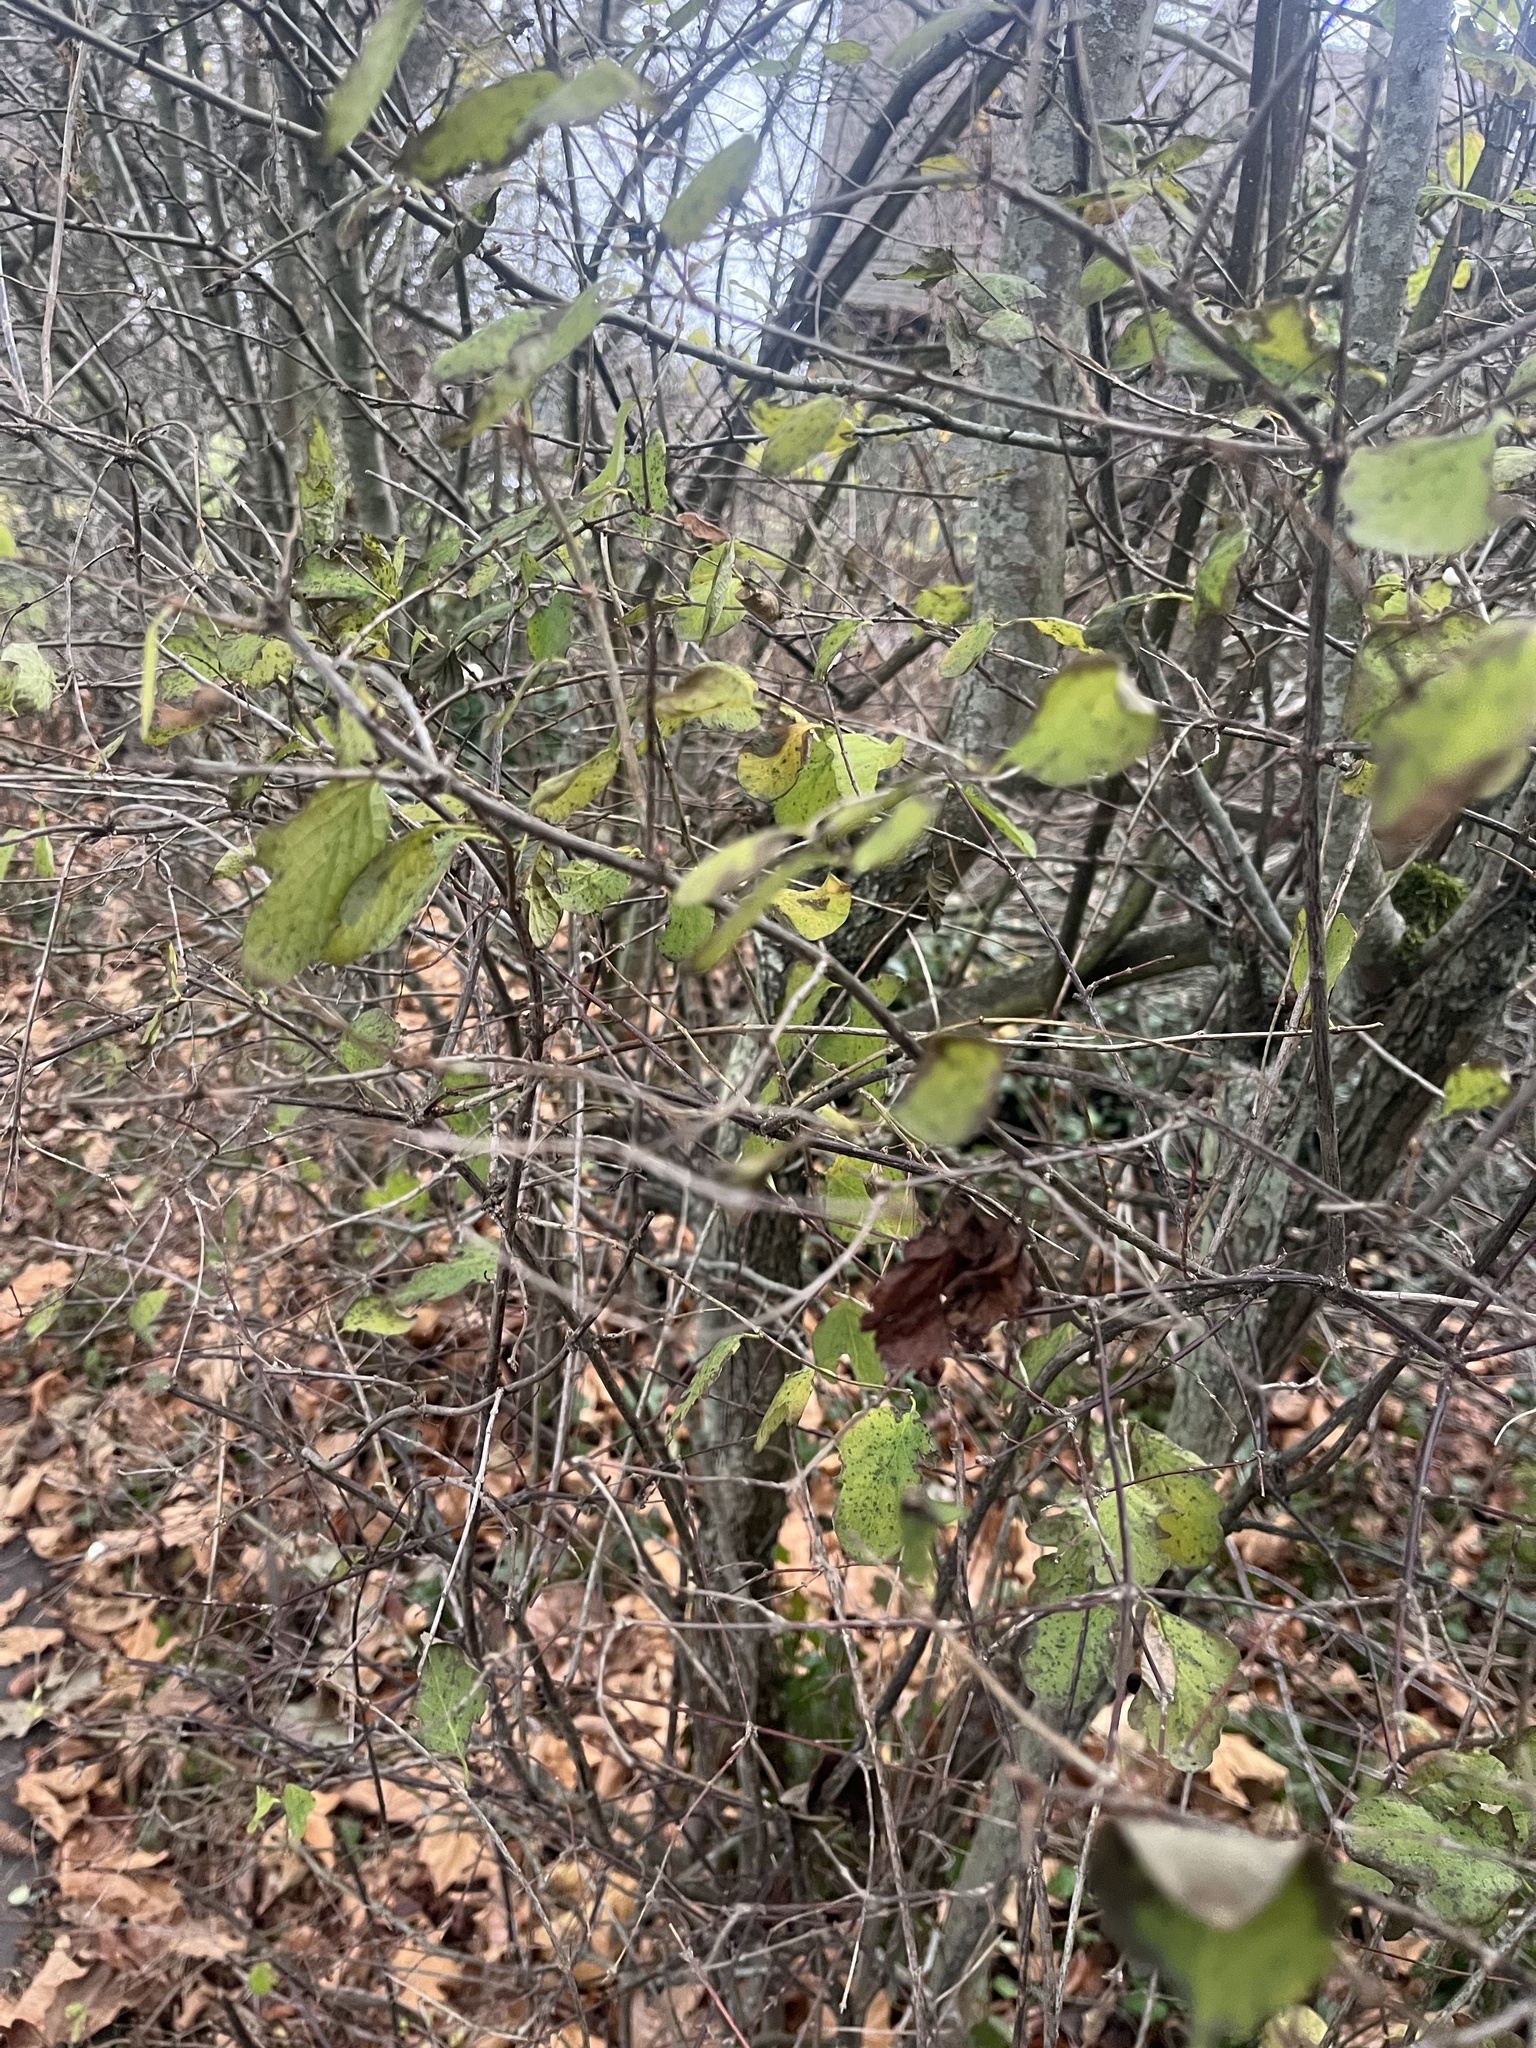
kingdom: Plantae
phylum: Tracheophyta
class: Magnoliopsida
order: Dipsacales
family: Caprifoliaceae
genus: Symphoricarpos
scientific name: Symphoricarpos albus
